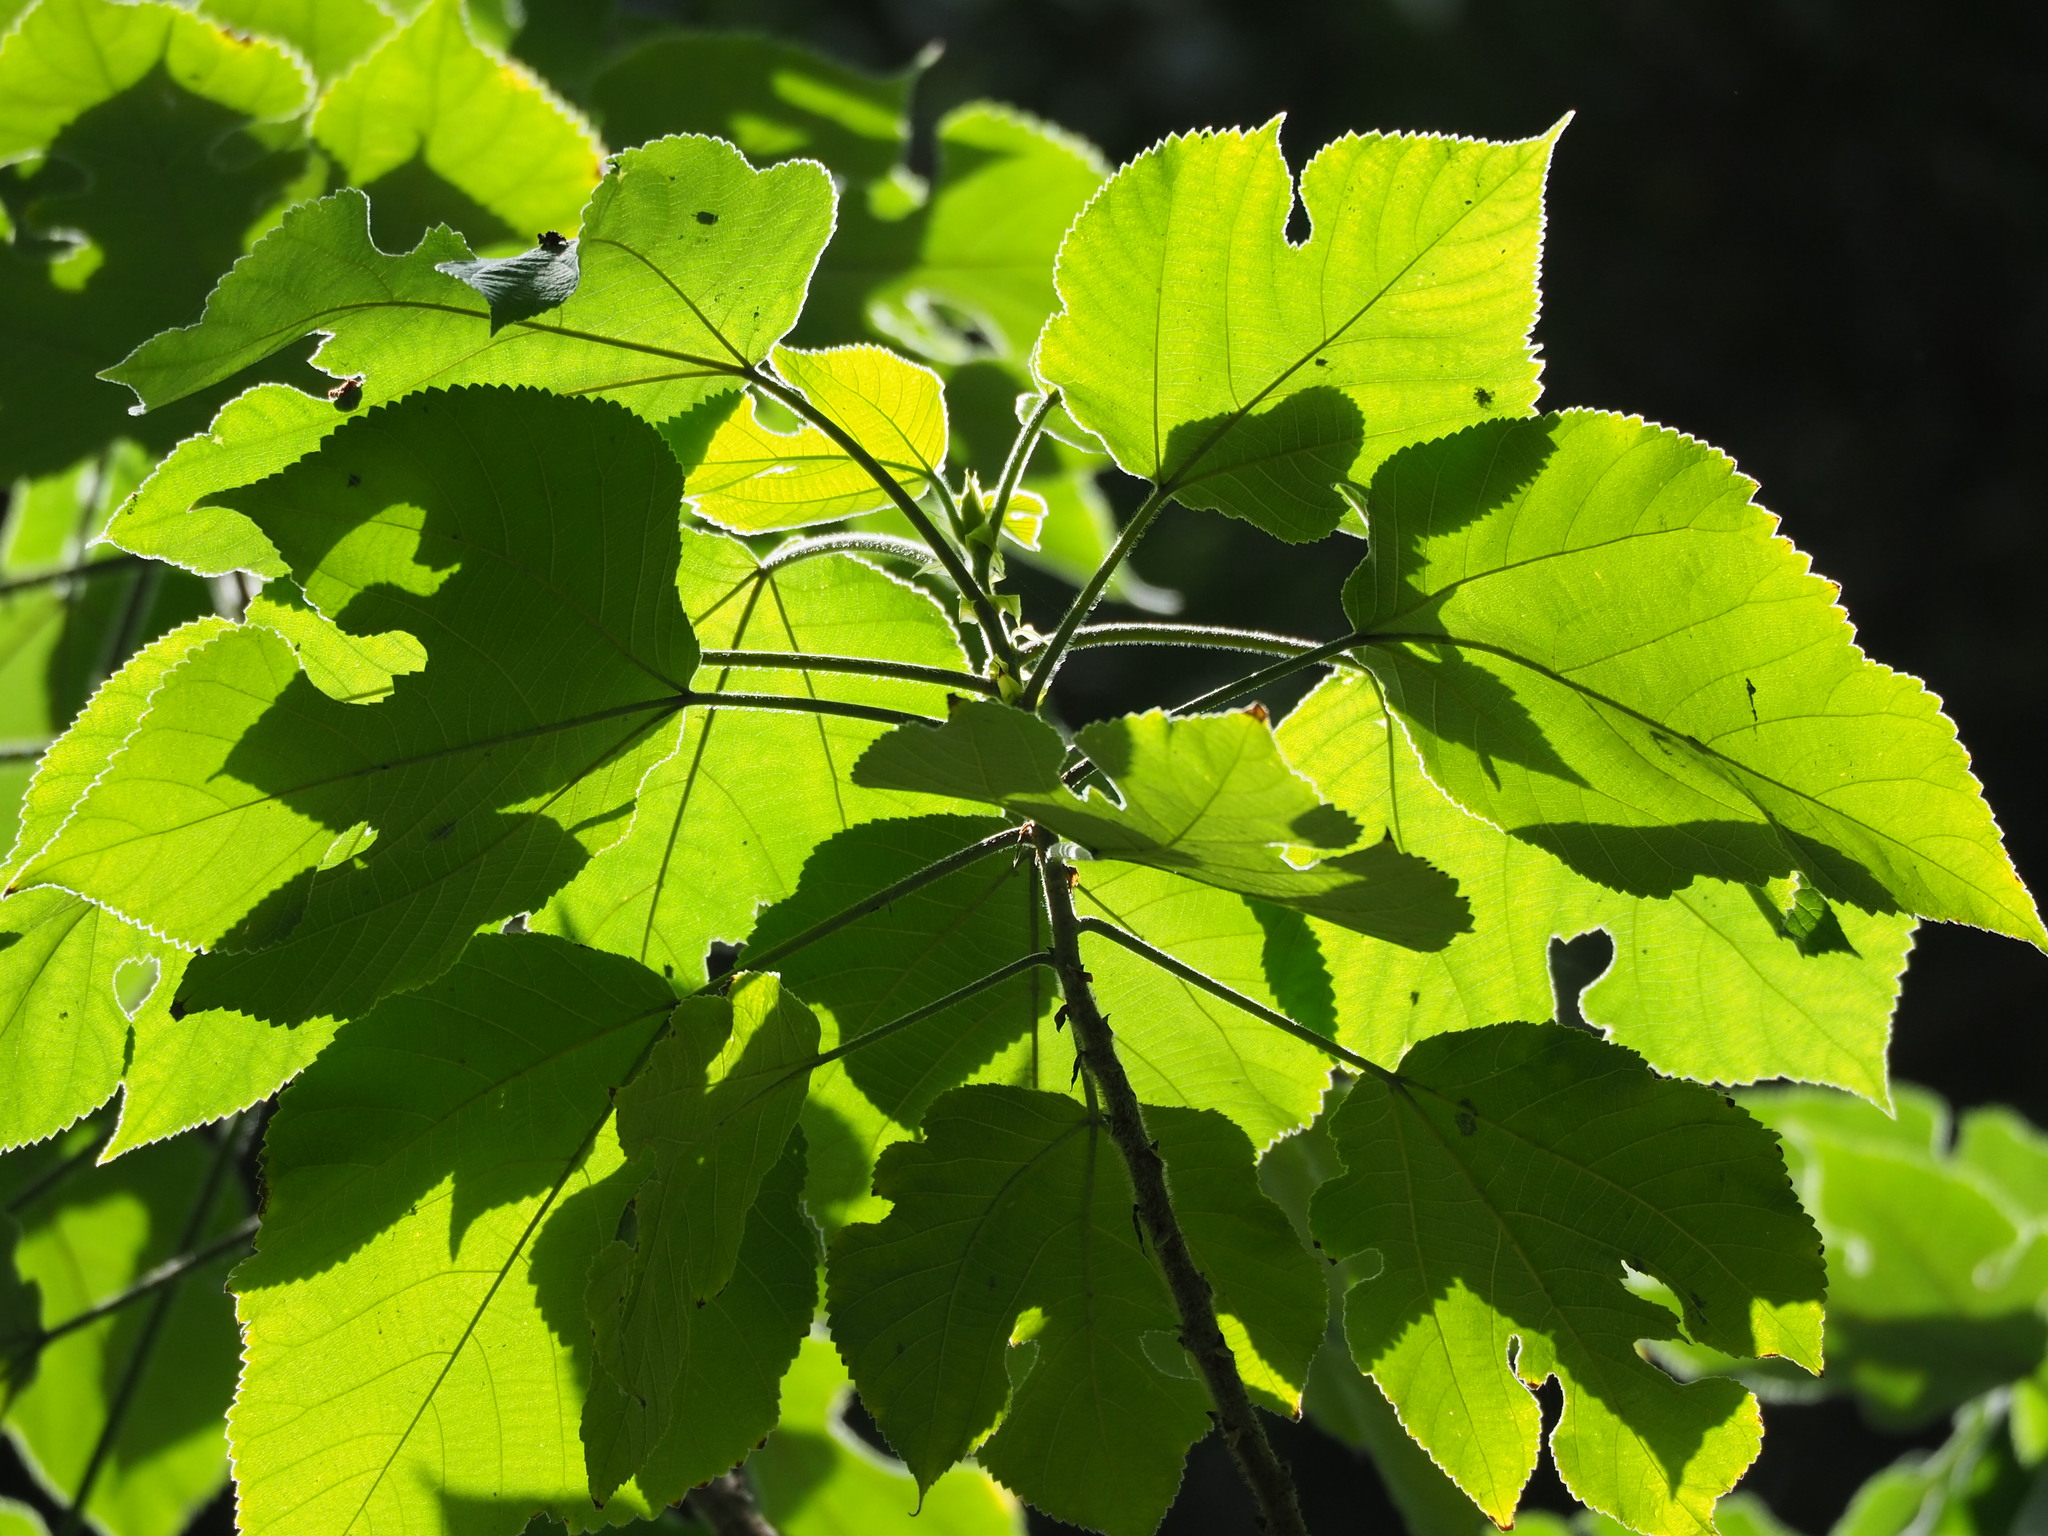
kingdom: Plantae
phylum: Tracheophyta
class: Magnoliopsida
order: Rosales
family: Moraceae
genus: Broussonetia
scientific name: Broussonetia papyrifera
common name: Paper mulberry
